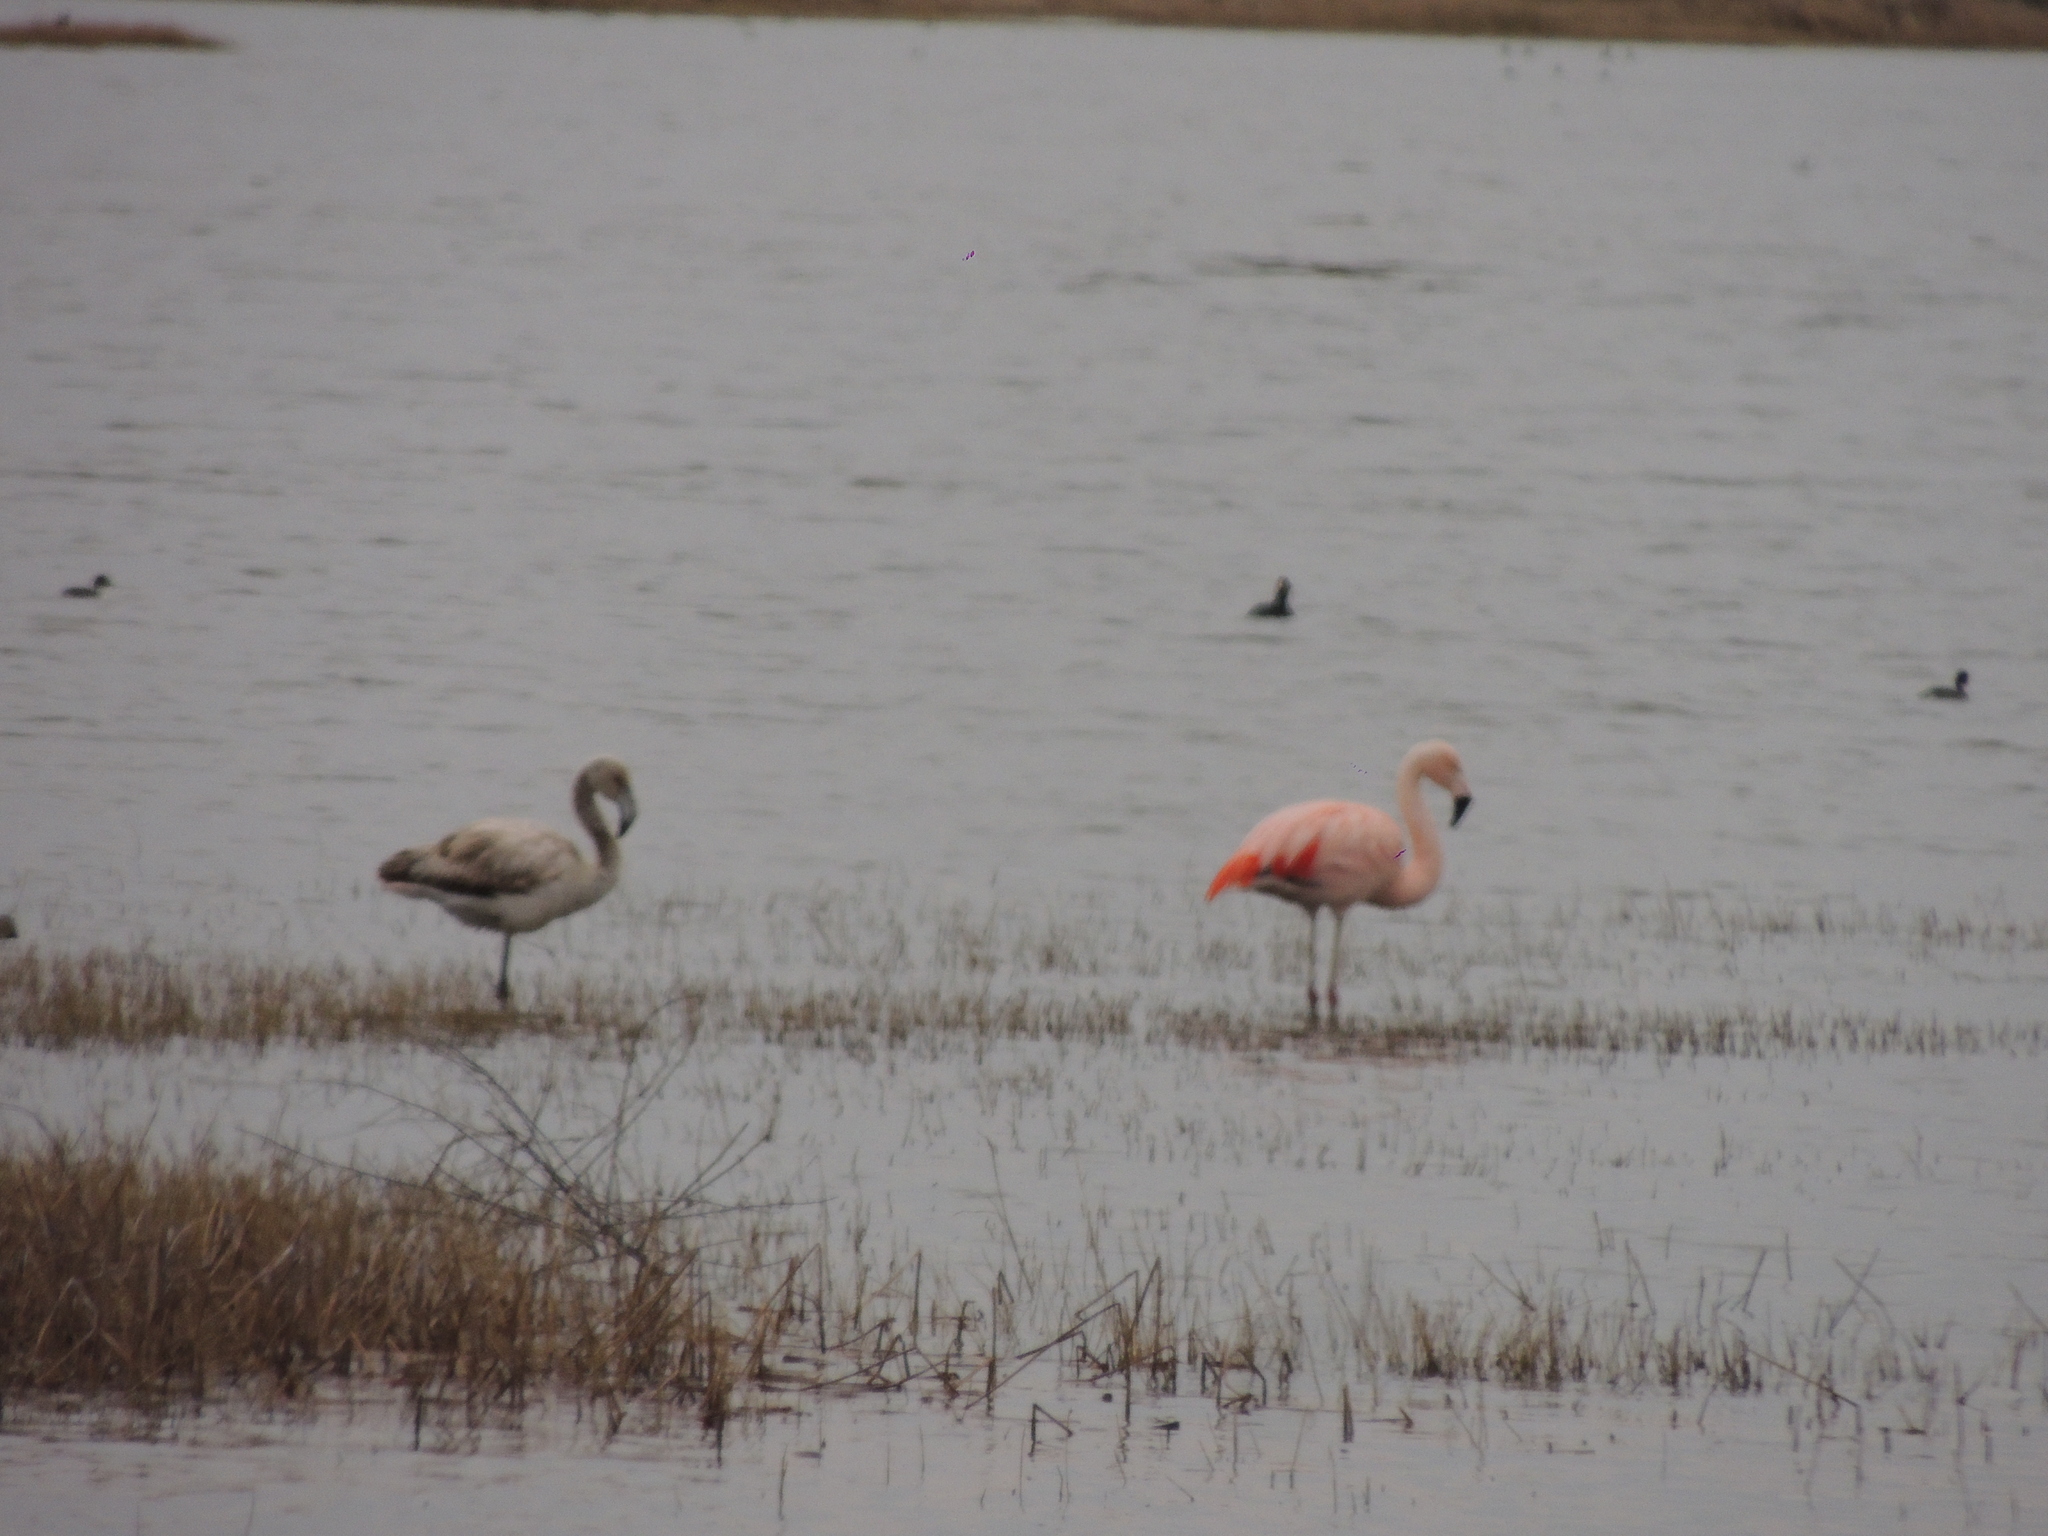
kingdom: Animalia
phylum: Chordata
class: Aves
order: Phoenicopteriformes
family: Phoenicopteridae
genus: Phoenicopterus
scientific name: Phoenicopterus chilensis
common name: Chilean flamingo
